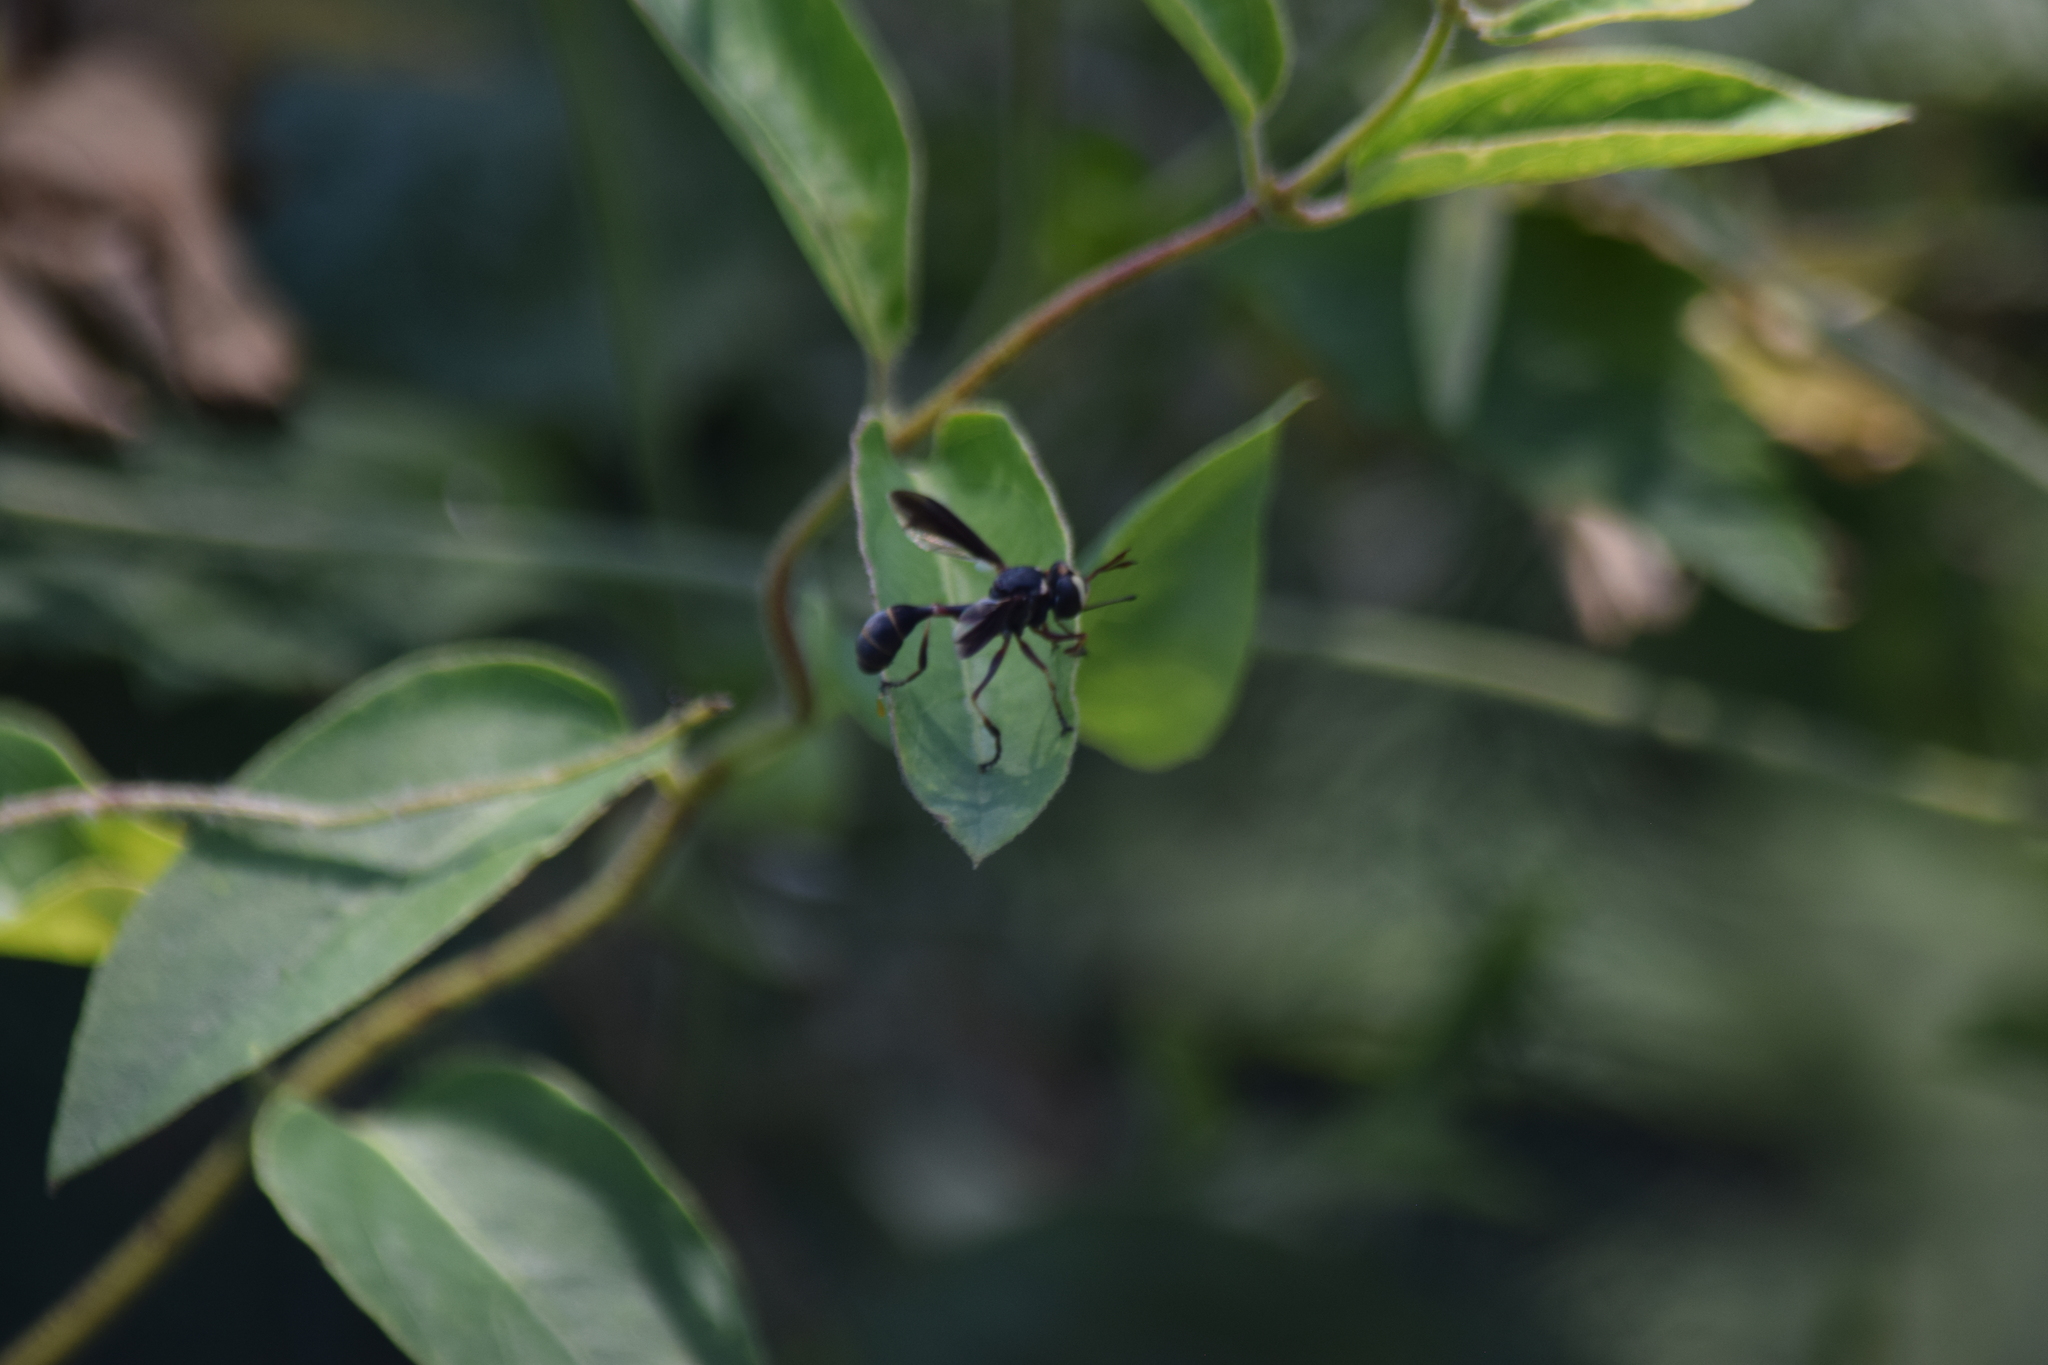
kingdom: Animalia
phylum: Arthropoda
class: Insecta
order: Diptera
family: Conopidae
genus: Physocephala
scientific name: Physocephala sagittaria
